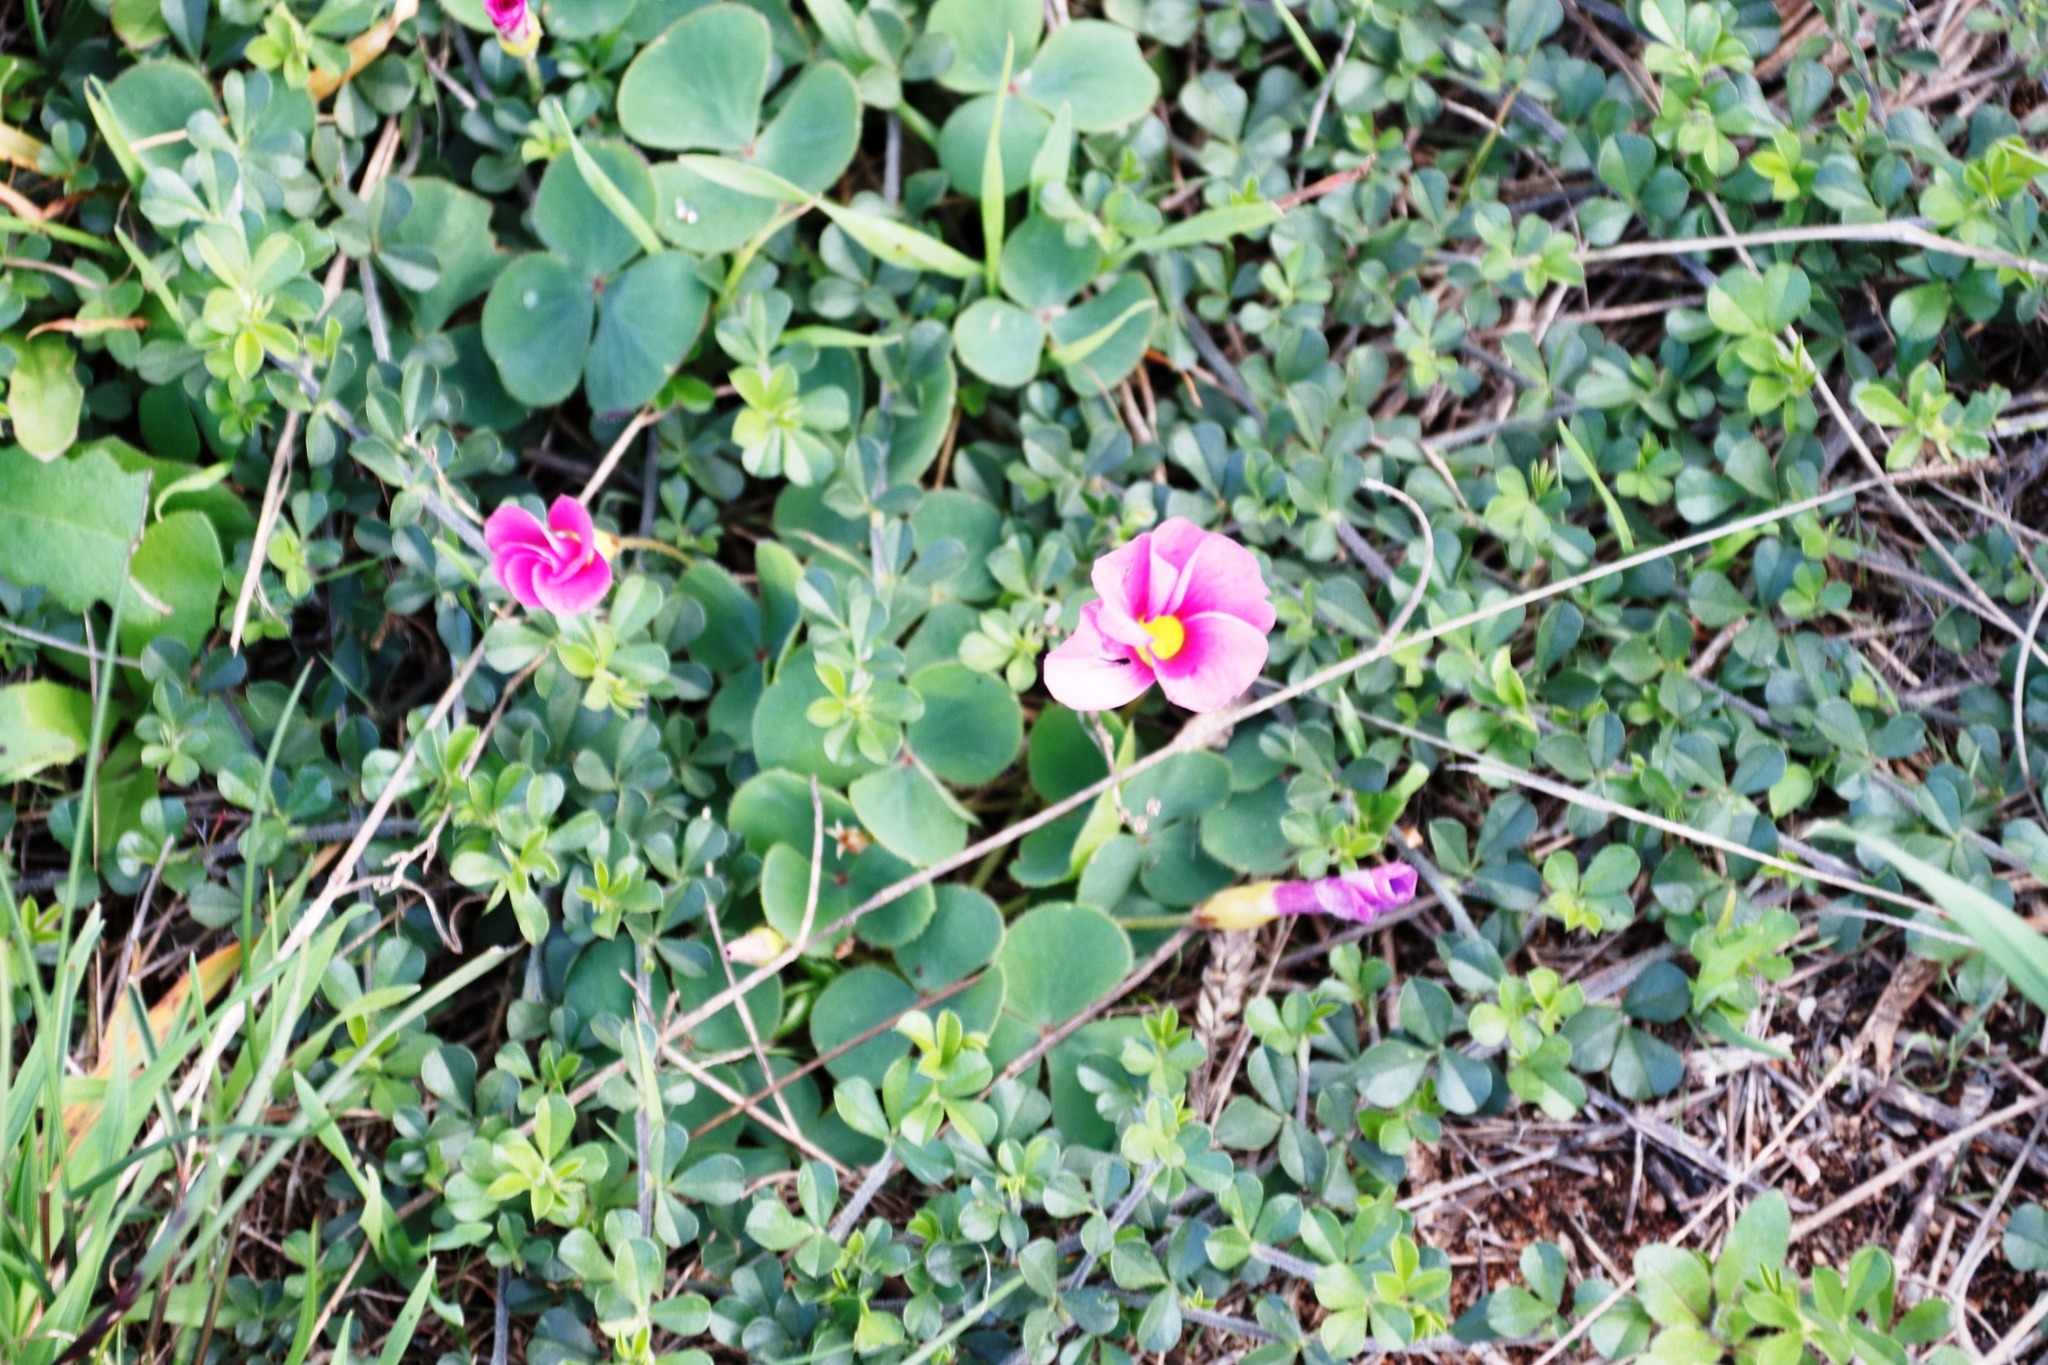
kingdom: Plantae
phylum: Tracheophyta
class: Magnoliopsida
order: Oxalidales
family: Oxalidaceae
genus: Oxalis
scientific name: Oxalis purpurea
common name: Purple woodsorrel
